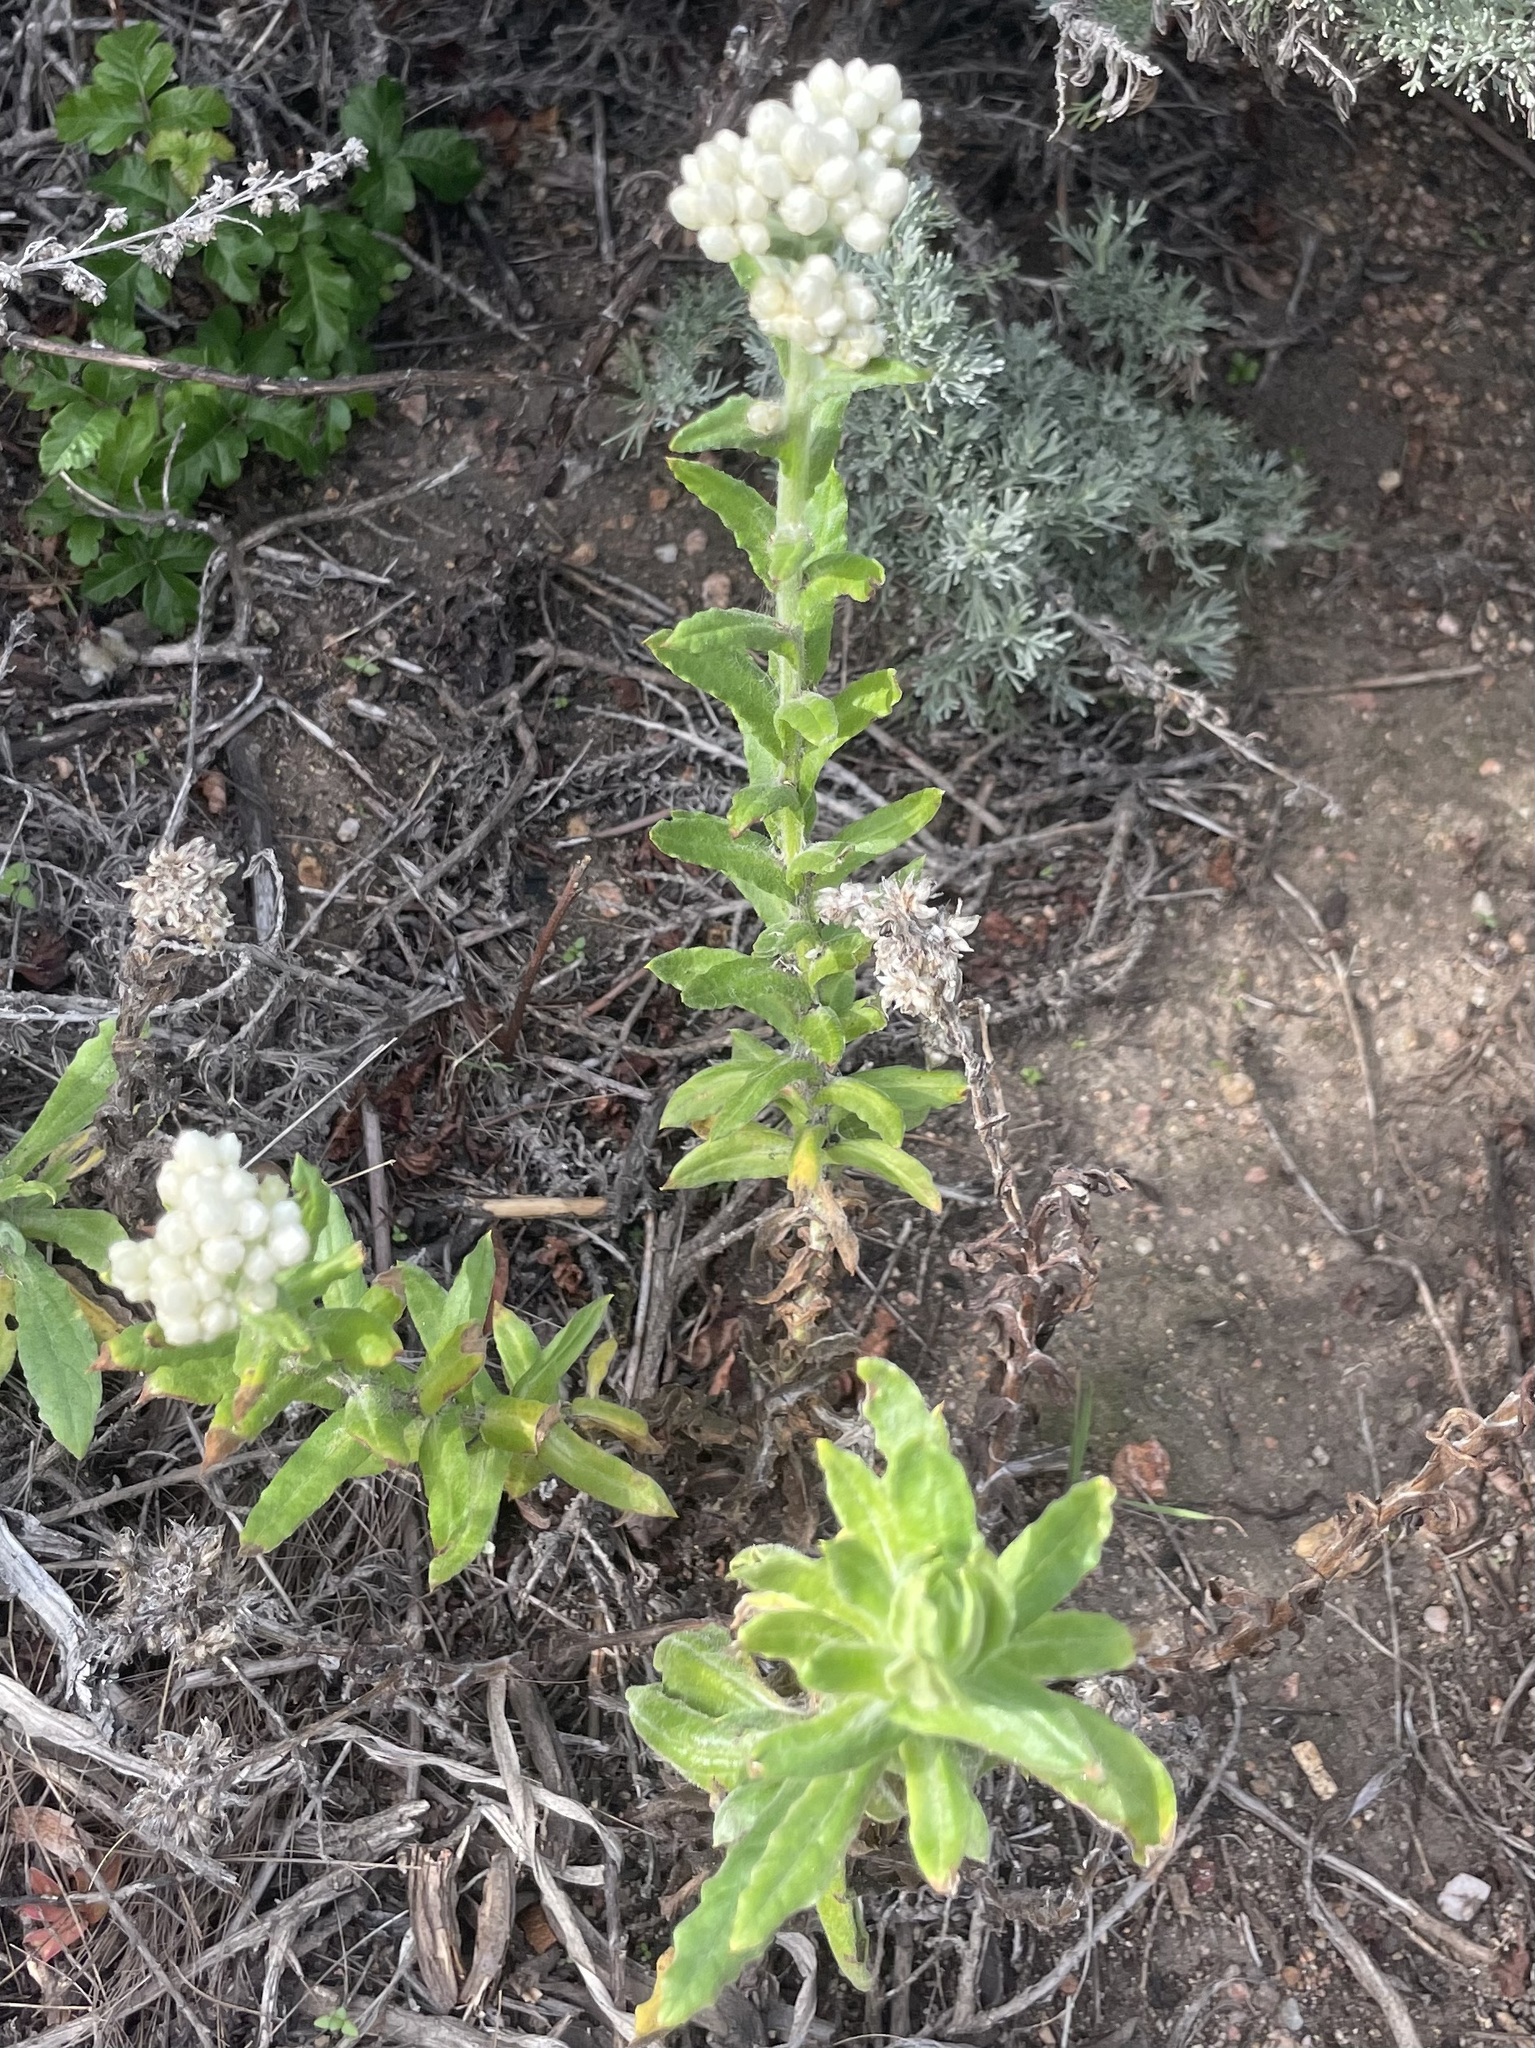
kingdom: Plantae
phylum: Tracheophyta
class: Magnoliopsida
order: Asterales
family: Asteraceae
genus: Pseudognaphalium
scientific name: Pseudognaphalium californicum
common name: California rabbit-tobacco
